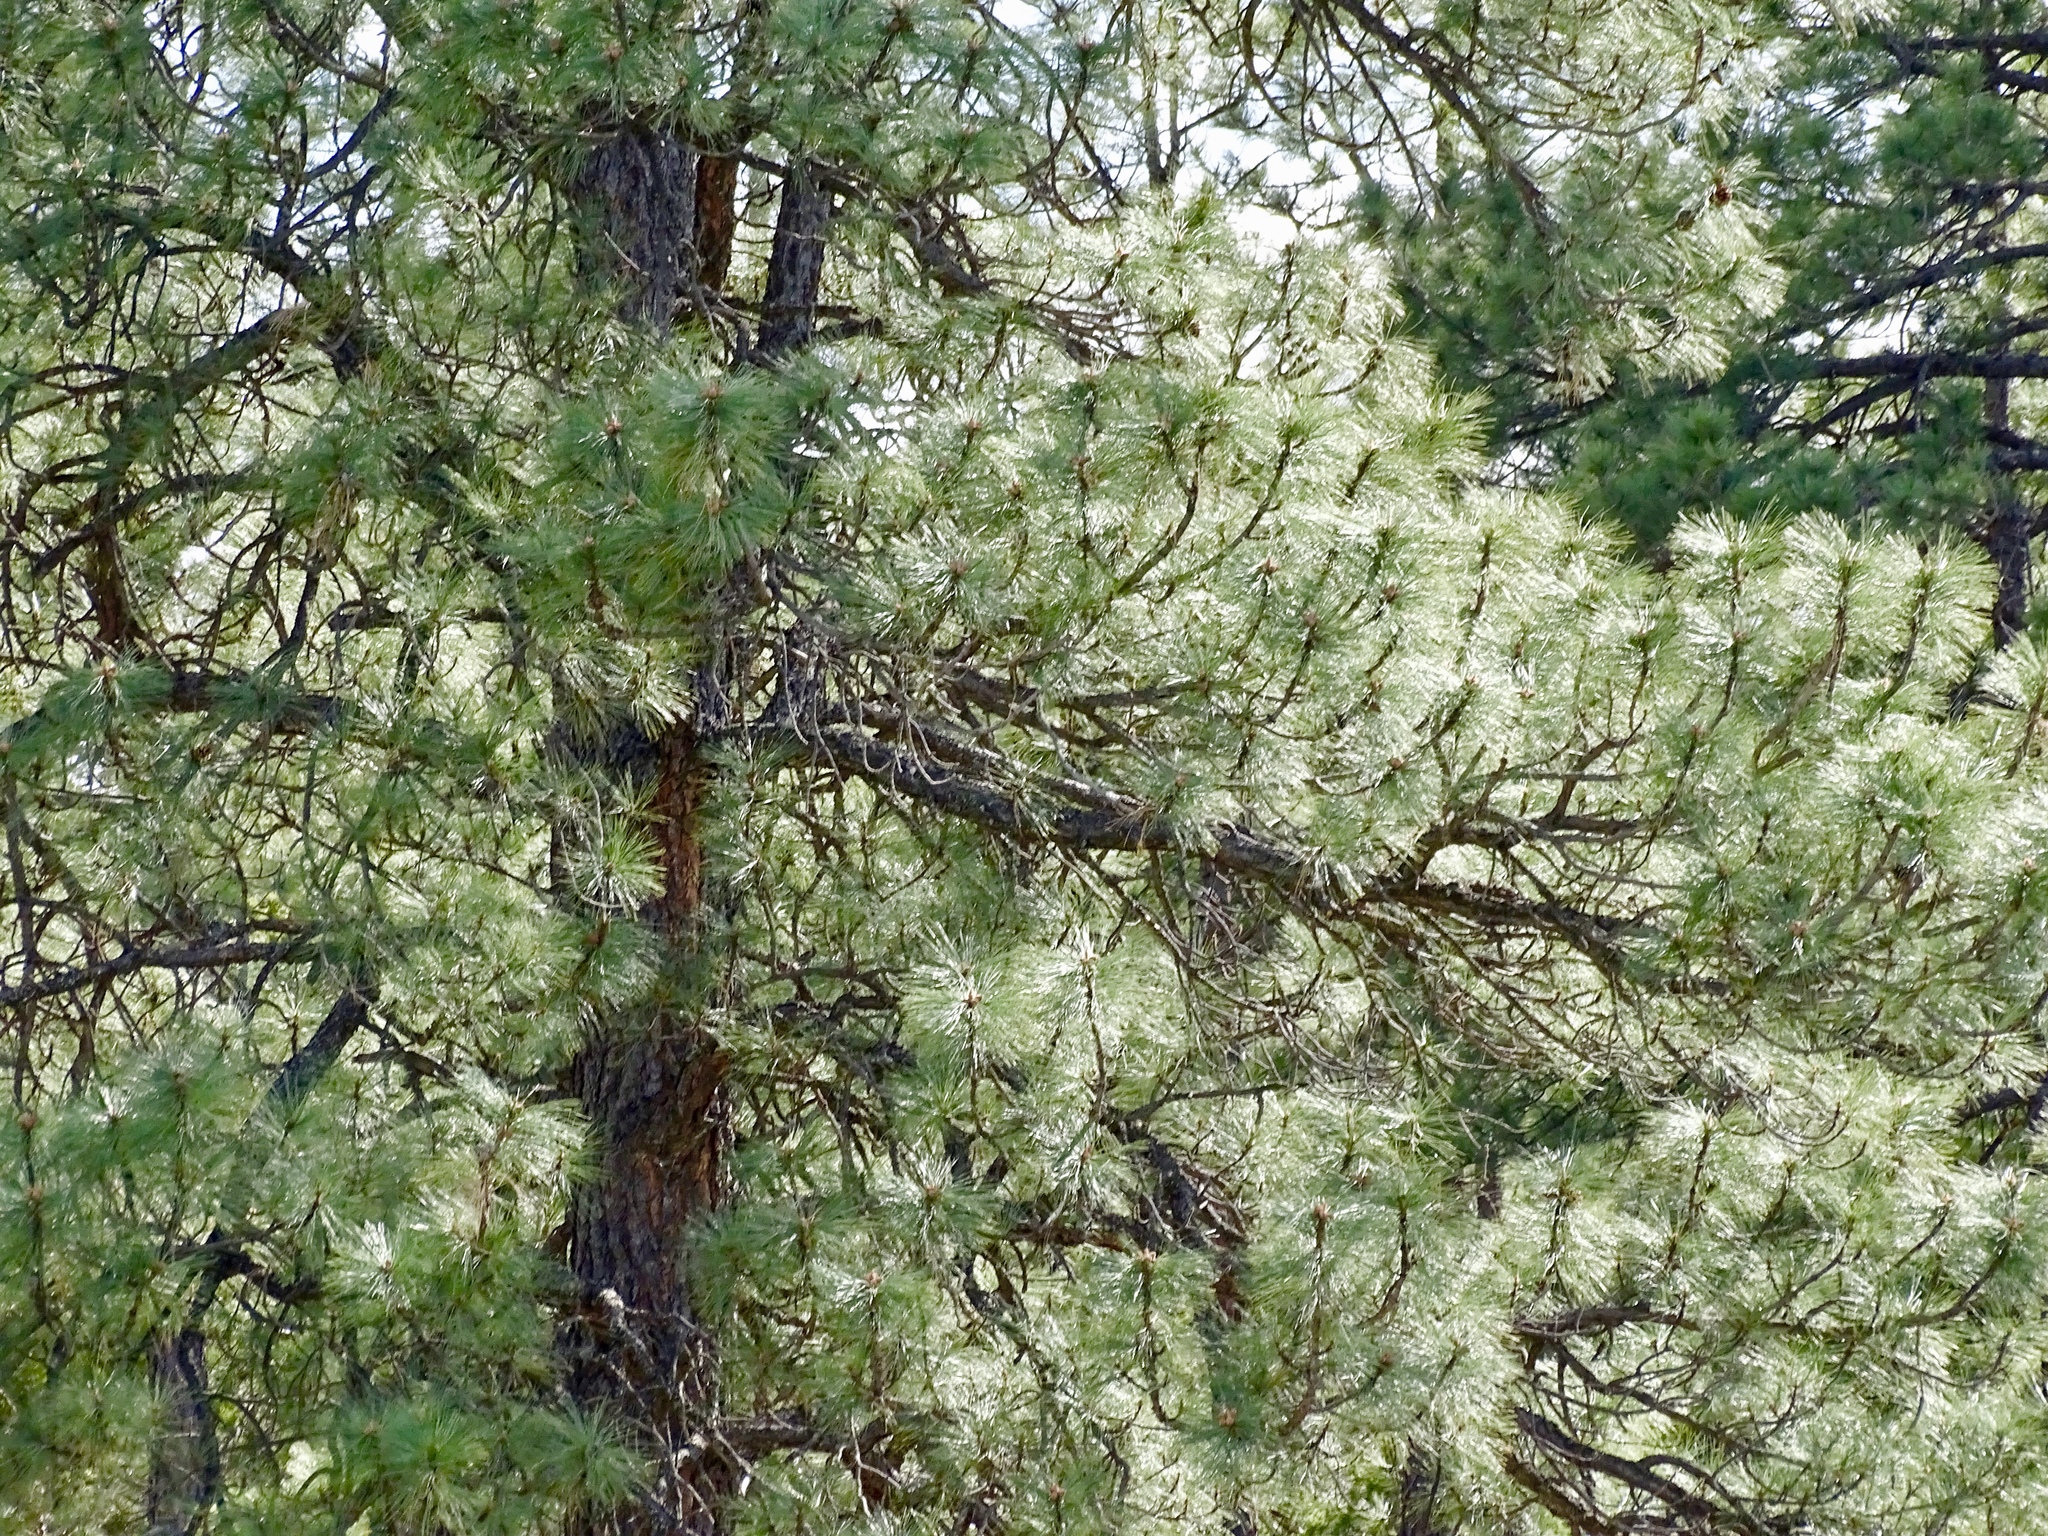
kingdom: Plantae
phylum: Tracheophyta
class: Pinopsida
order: Pinales
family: Pinaceae
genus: Pinus
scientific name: Pinus ponderosa
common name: Western yellow-pine
